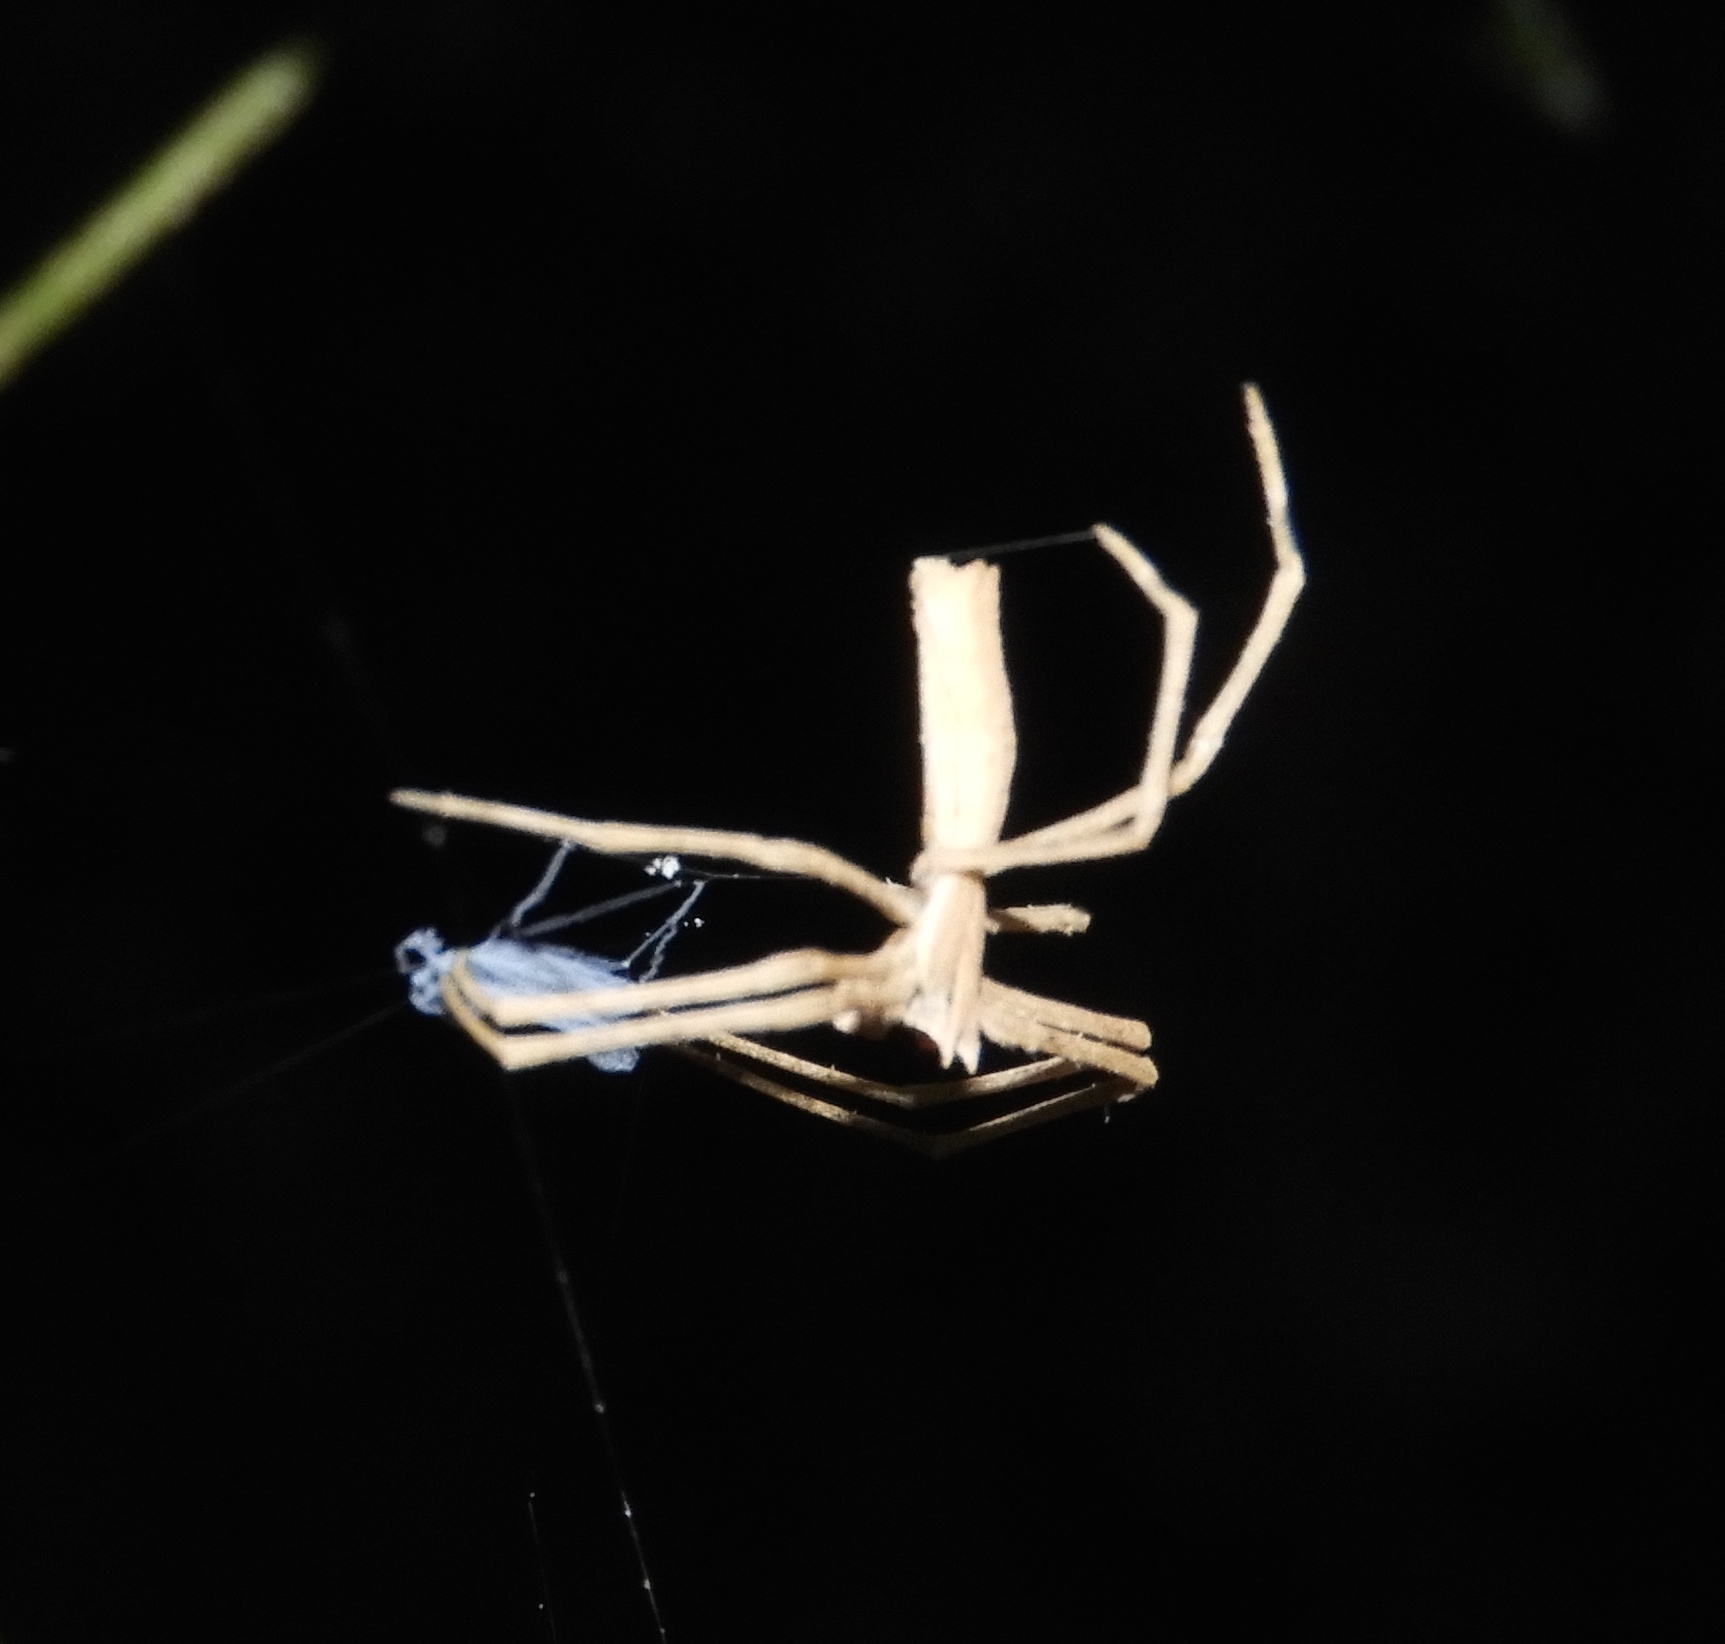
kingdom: Animalia
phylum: Arthropoda
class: Arachnida
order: Araneae
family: Deinopidae
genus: Deinopis
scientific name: Deinopis aurita
